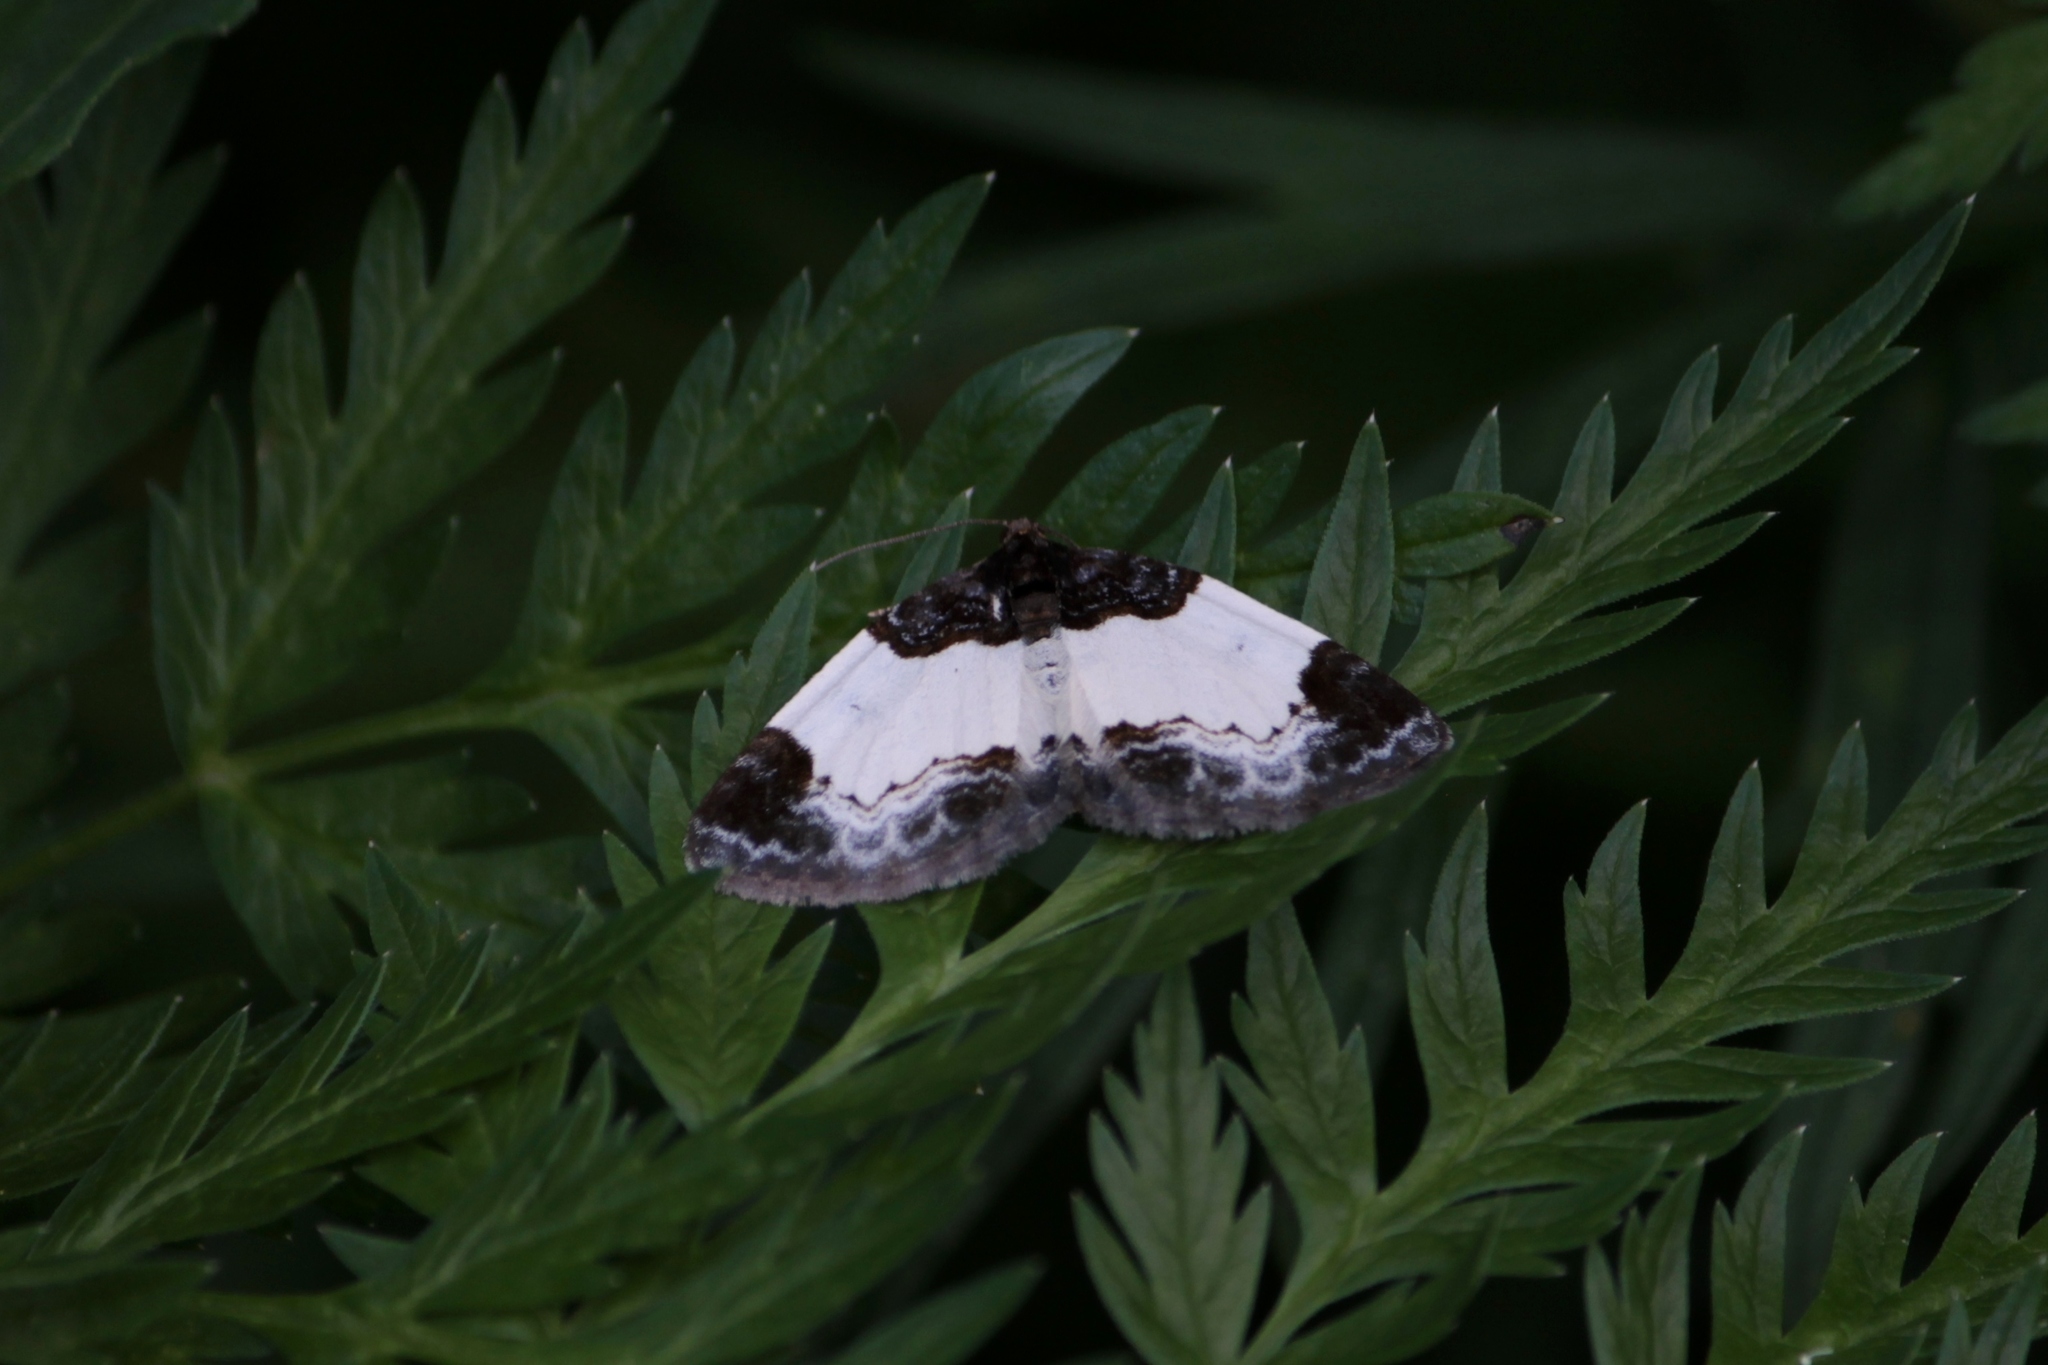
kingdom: Animalia
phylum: Arthropoda
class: Insecta
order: Lepidoptera
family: Geometridae
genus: Mesoleuca
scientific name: Mesoleuca albicillata
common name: Beautiful carpet
